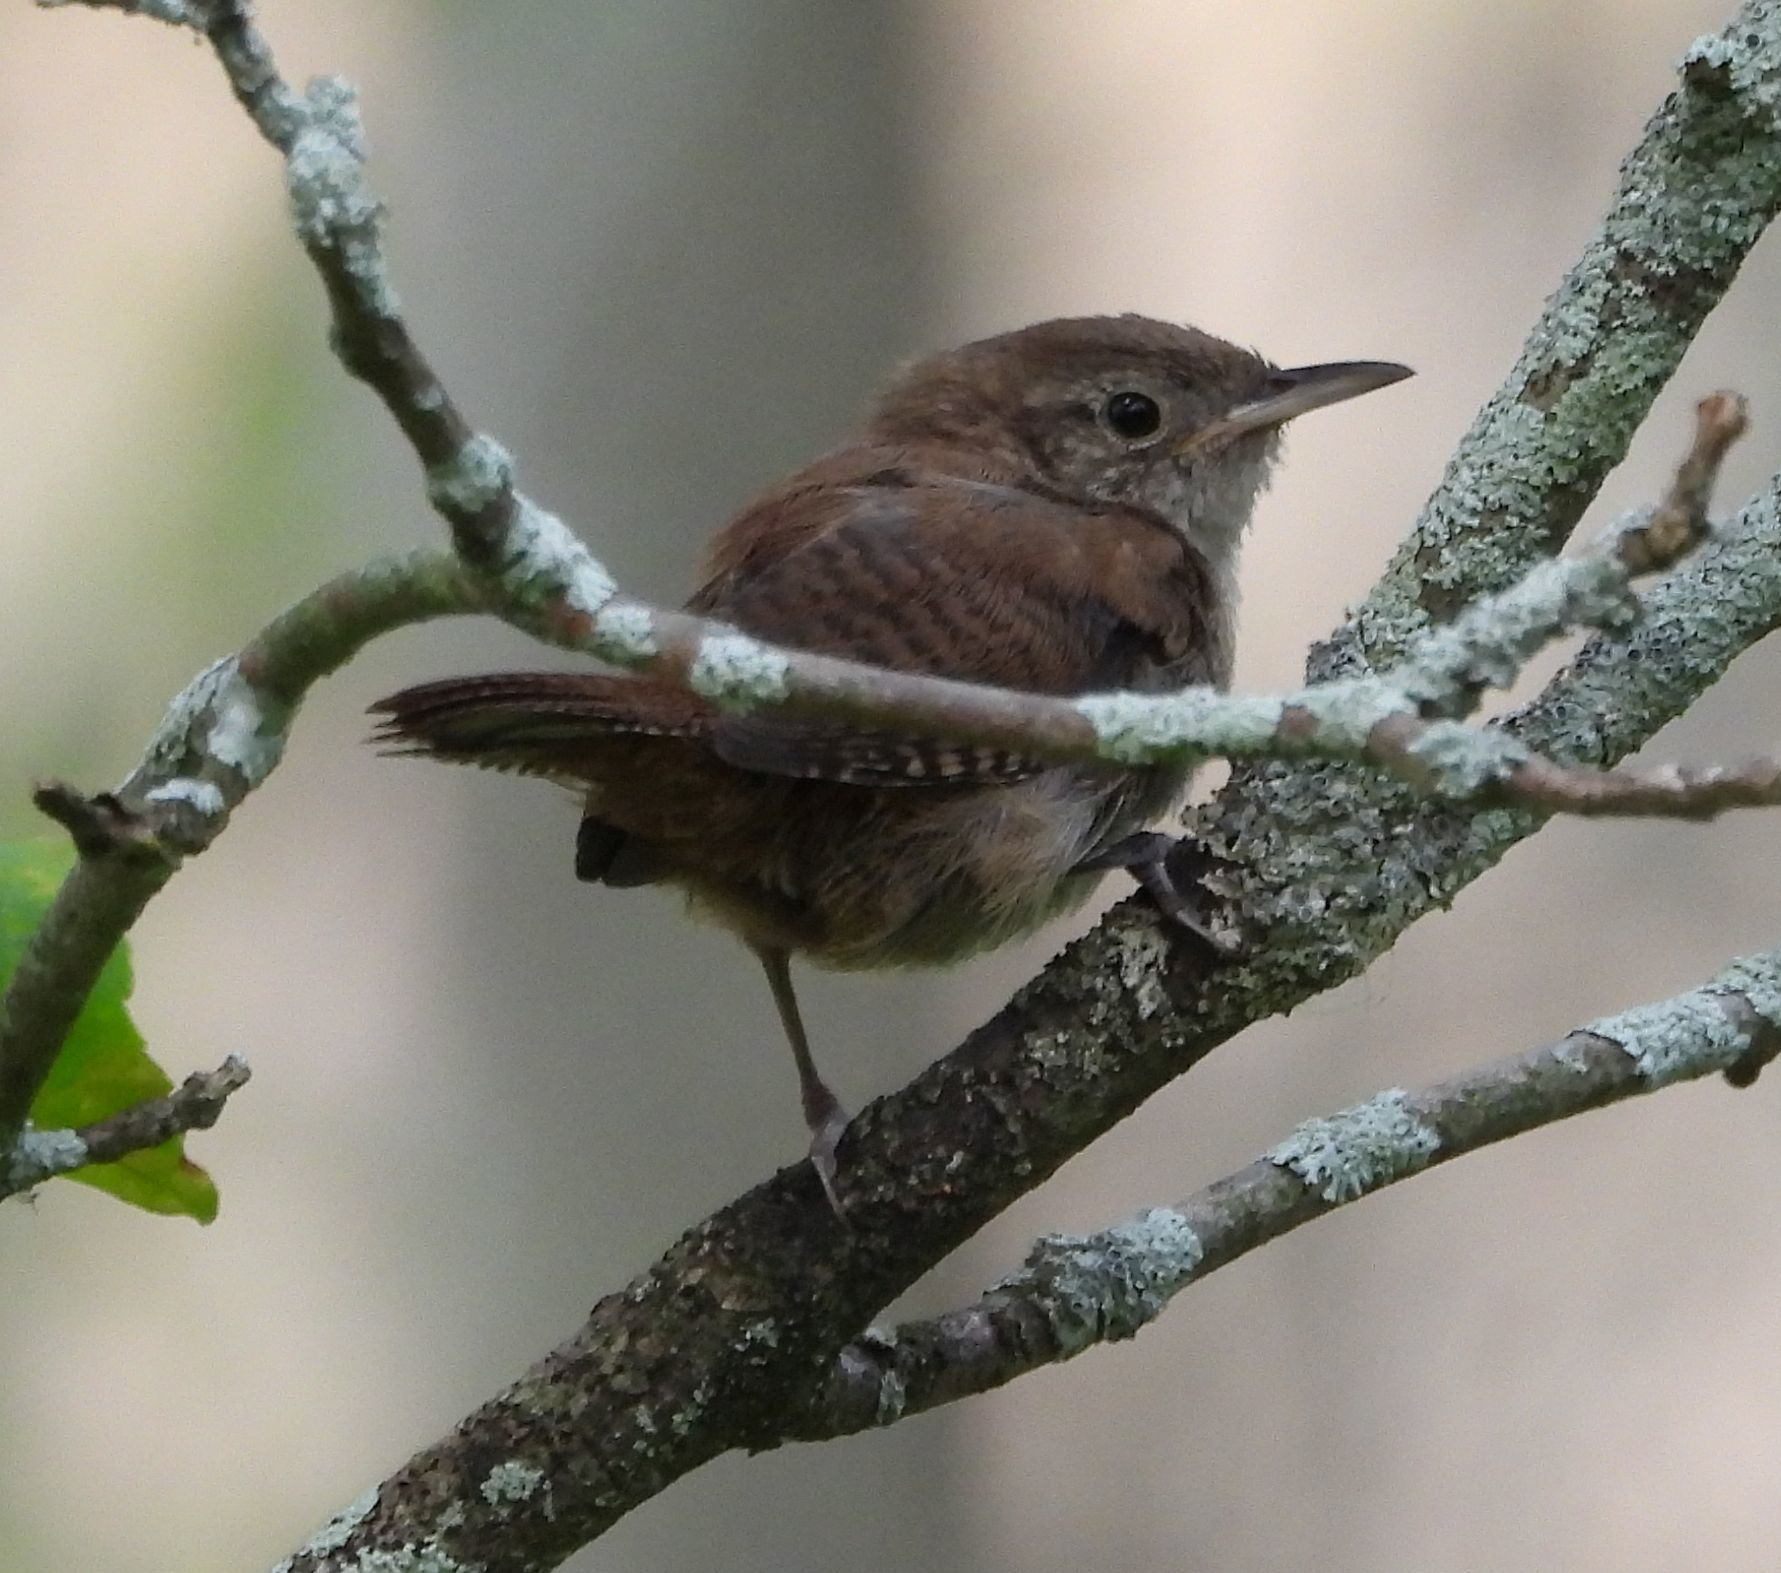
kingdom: Animalia
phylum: Chordata
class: Aves
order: Passeriformes
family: Troglodytidae
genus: Troglodytes
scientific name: Troglodytes aedon
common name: House wren
